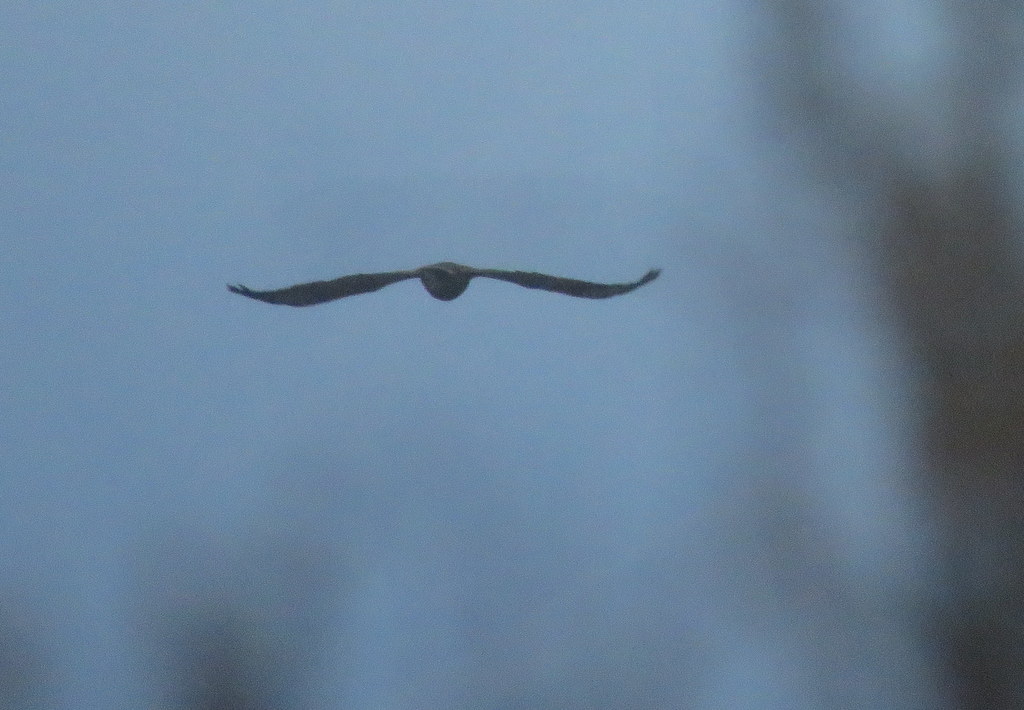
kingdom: Animalia
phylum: Chordata
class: Aves
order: Strigiformes
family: Strigidae
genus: Bubo
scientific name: Bubo magellanicus
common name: Lesser horned owl
